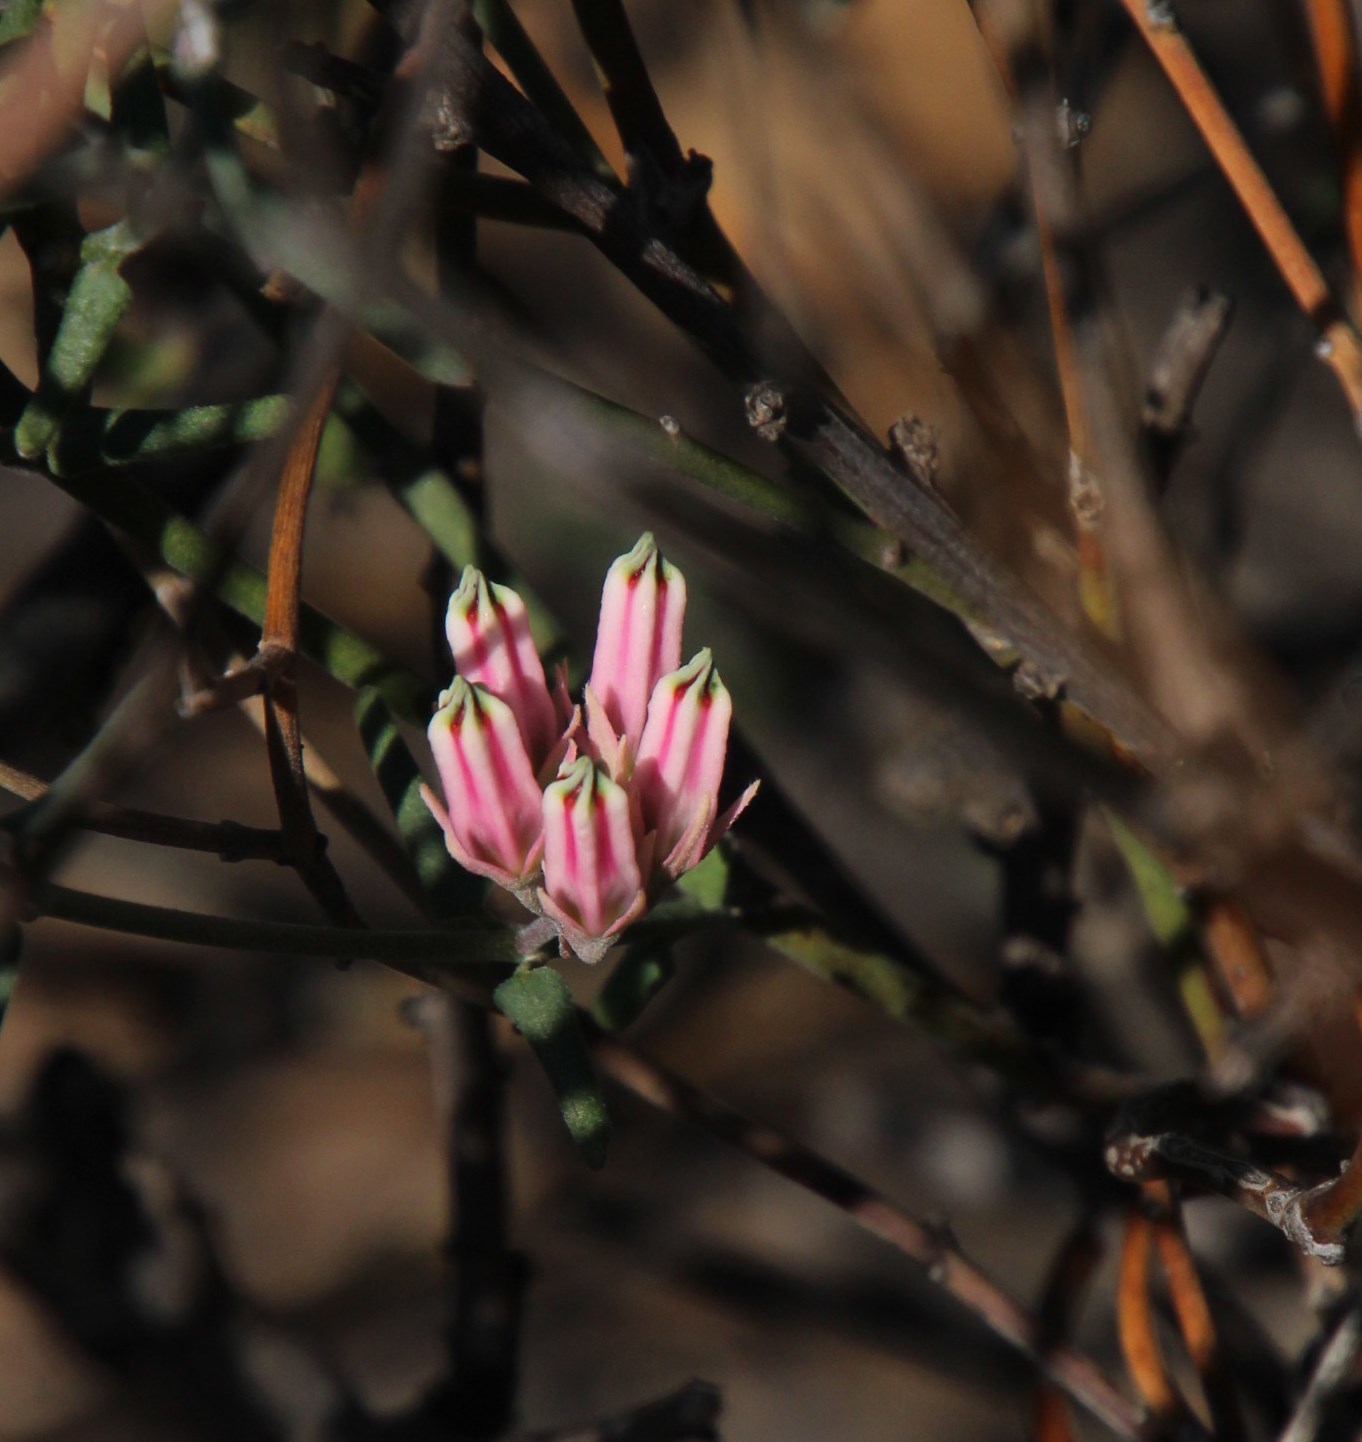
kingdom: Plantae
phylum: Tracheophyta
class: Magnoliopsida
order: Gentianales
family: Apocynaceae
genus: Microloma
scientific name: Microloma sagittatum
